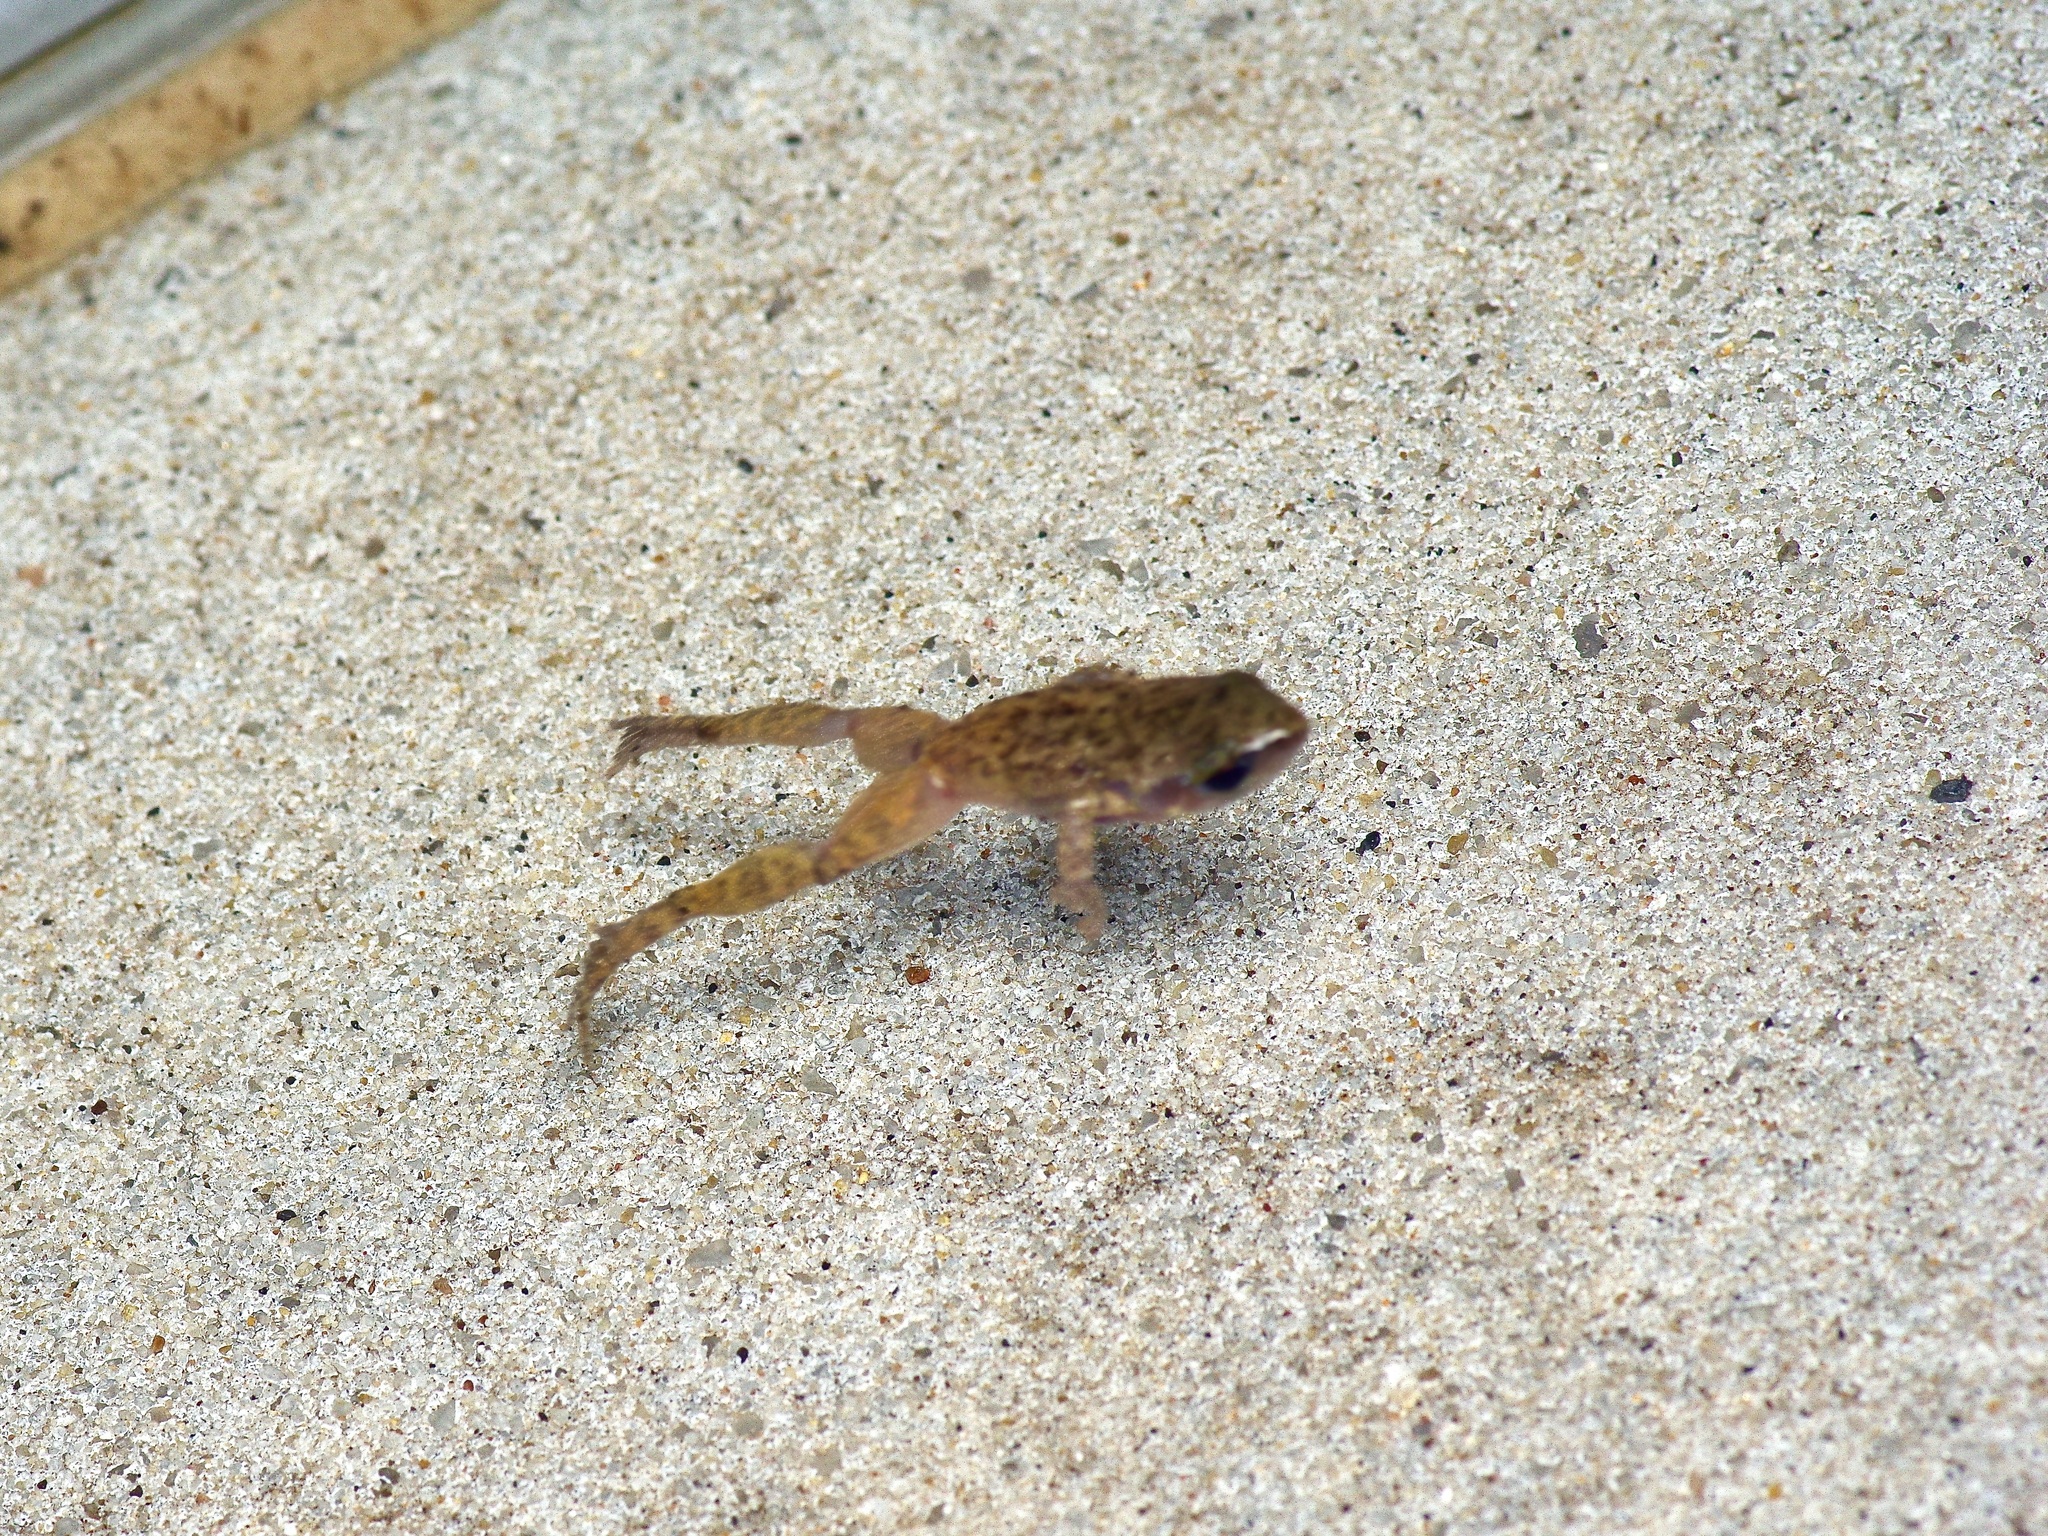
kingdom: Animalia
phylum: Chordata
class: Amphibia
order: Anura
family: Eleutherodactylidae
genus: Eleutherodactylus
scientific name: Eleutherodactylus marnockii
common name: Cliff chirping frog
